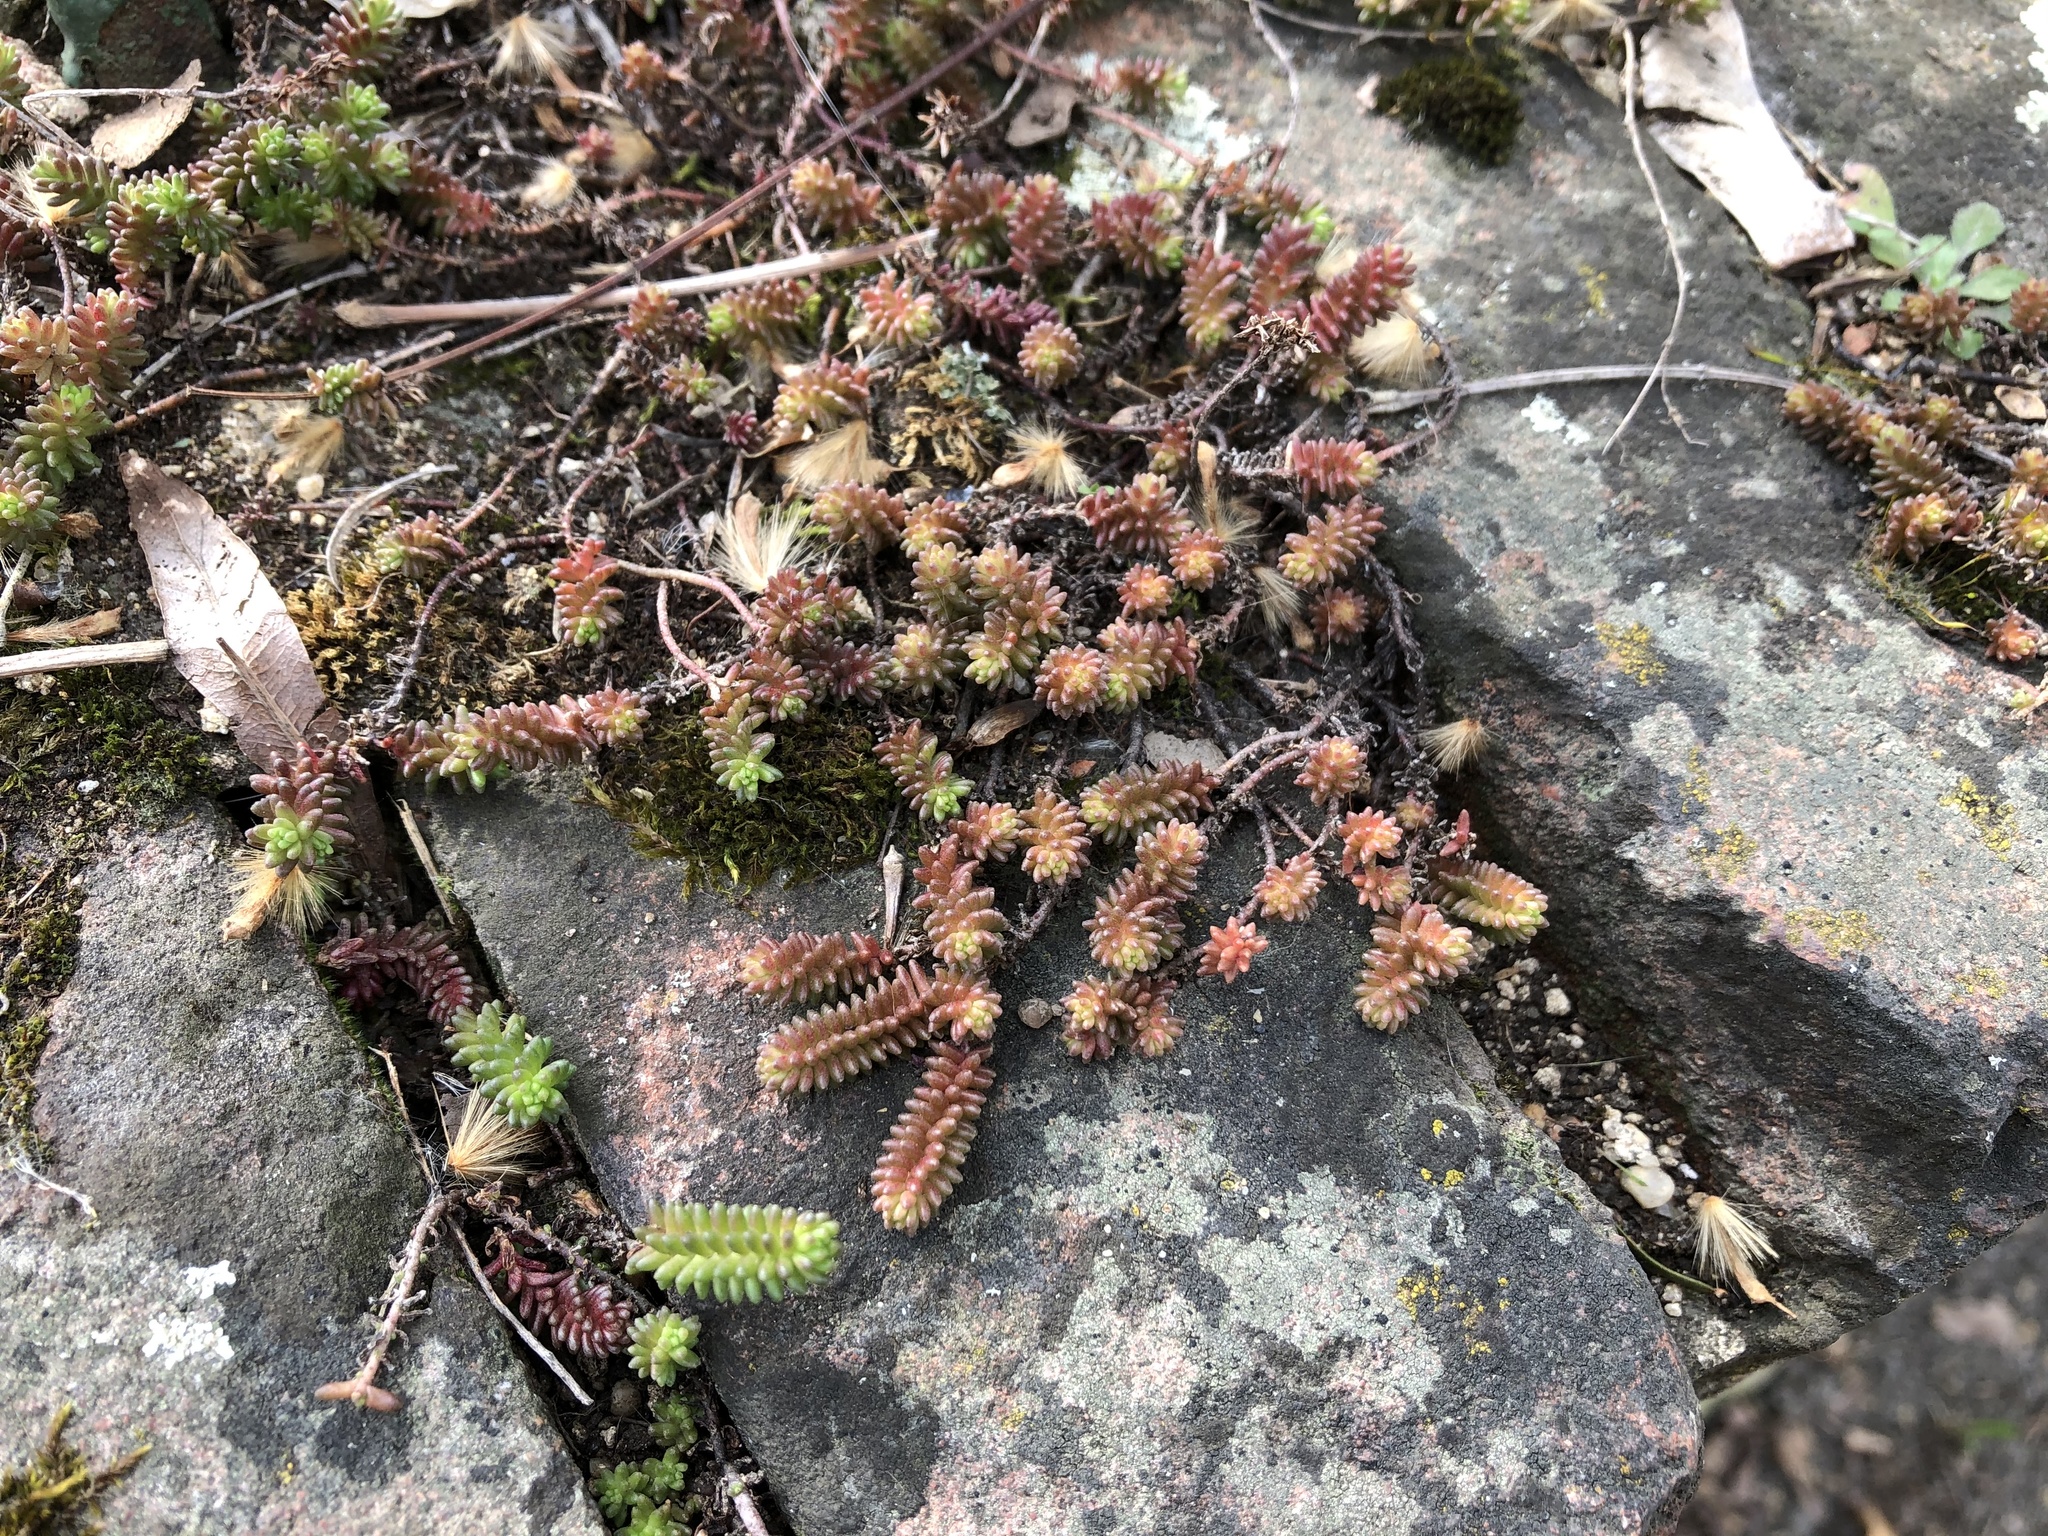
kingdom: Plantae
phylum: Tracheophyta
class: Magnoliopsida
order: Saxifragales
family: Crassulaceae
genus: Sedum
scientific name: Sedum sexangulare
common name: Tasteless stonecrop
